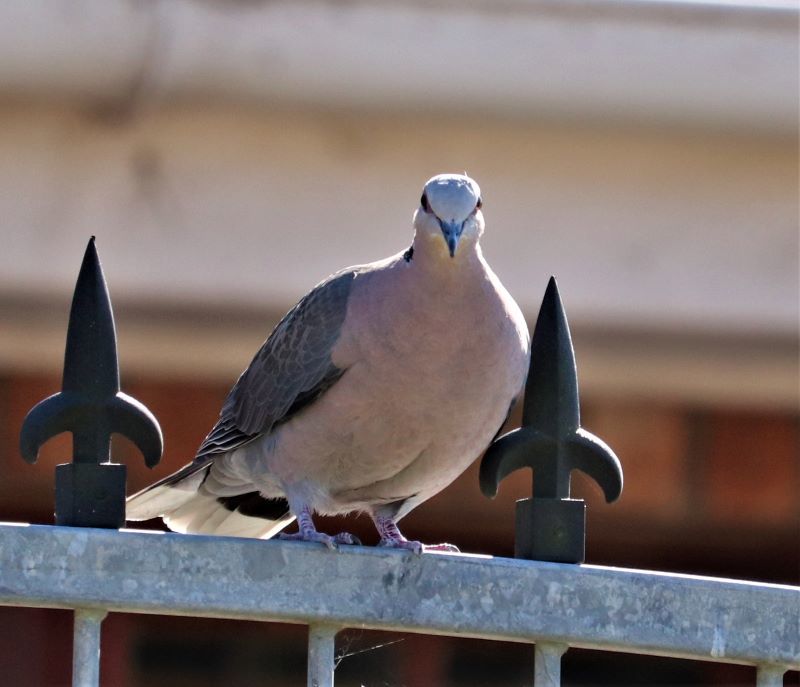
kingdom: Animalia
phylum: Chordata
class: Aves
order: Columbiformes
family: Columbidae
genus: Streptopelia
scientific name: Streptopelia semitorquata
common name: Red-eyed dove
